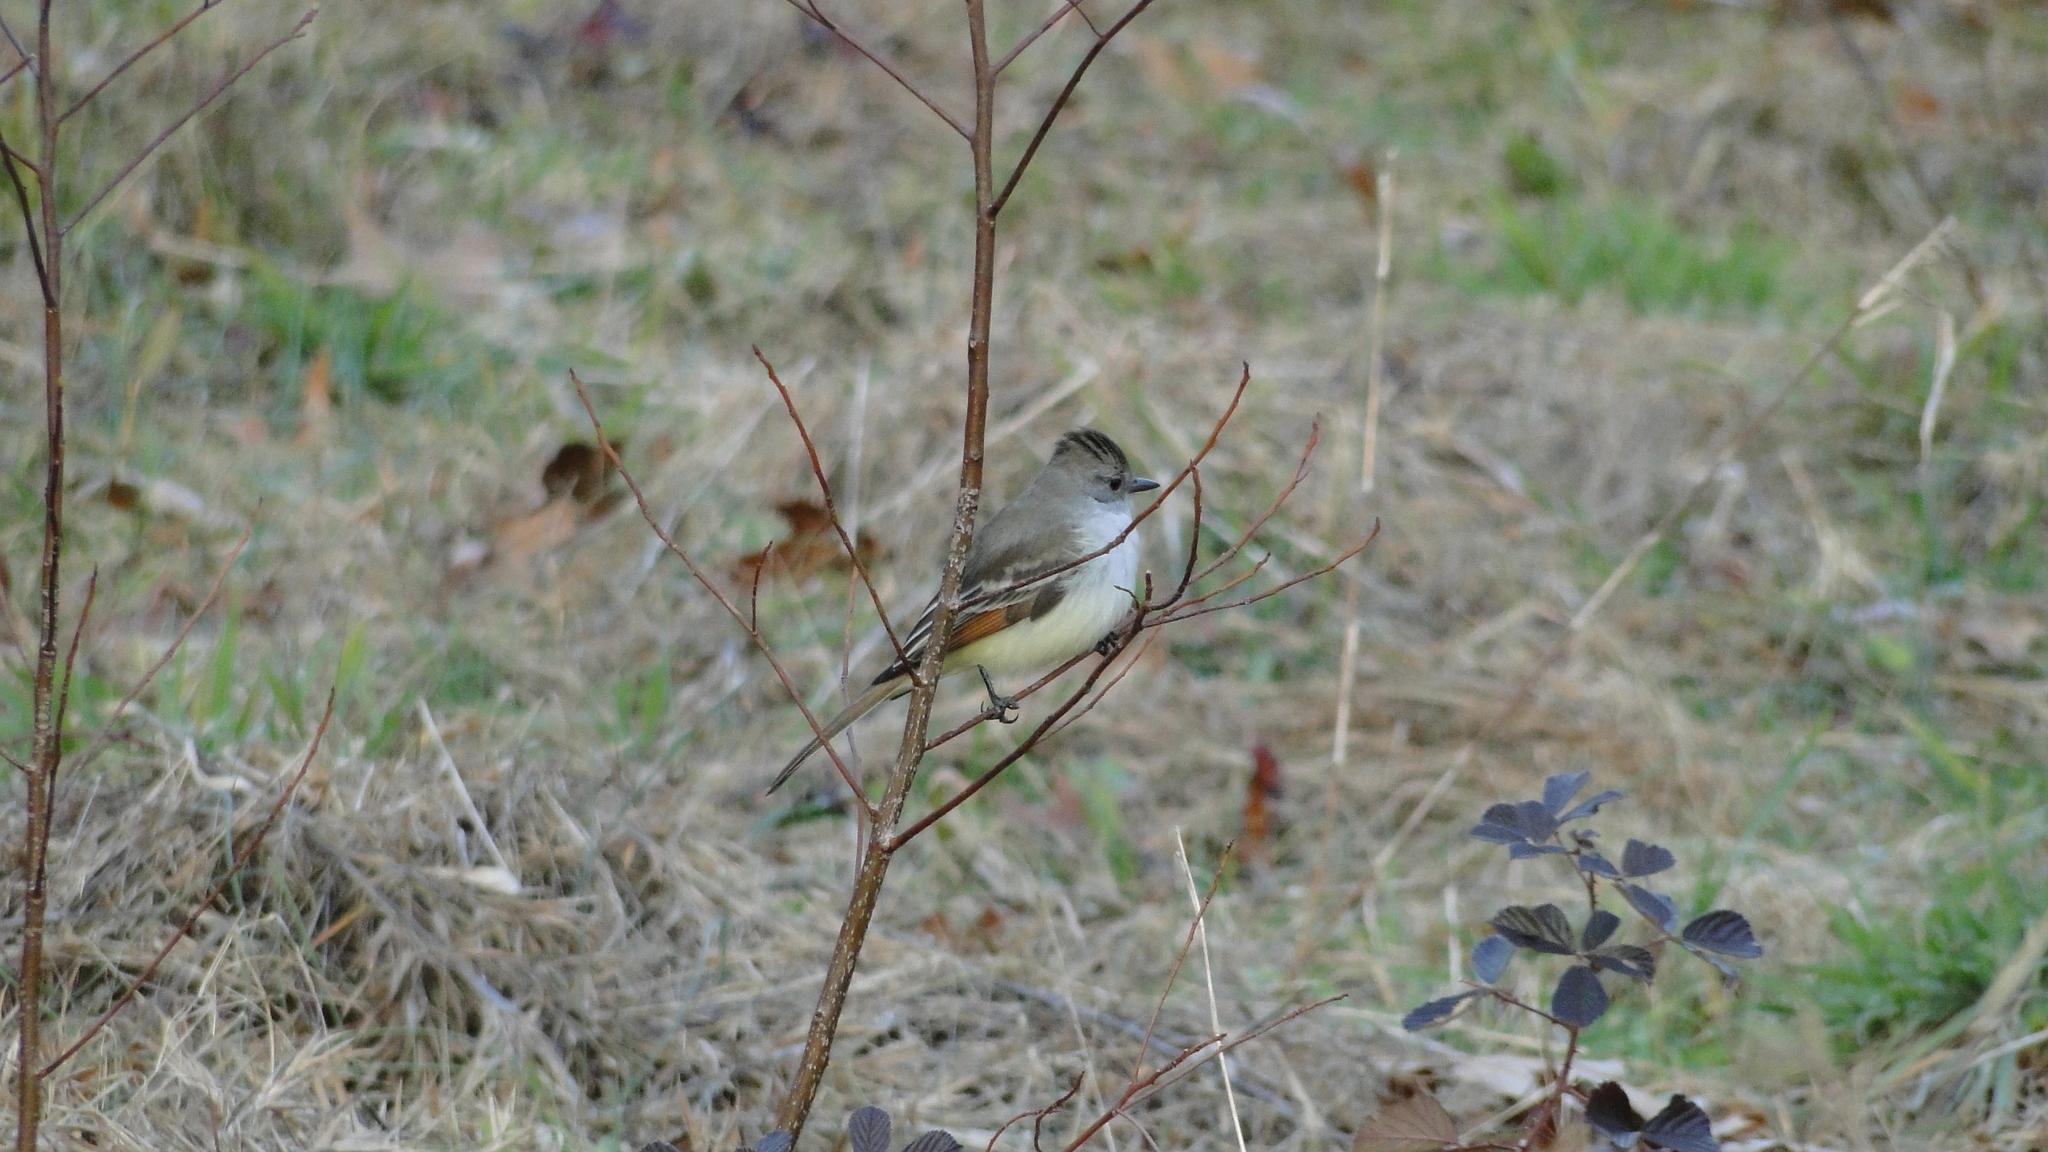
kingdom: Animalia
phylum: Chordata
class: Aves
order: Passeriformes
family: Tyrannidae
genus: Myiarchus
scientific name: Myiarchus cinerascens
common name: Ash-throated flycatcher
